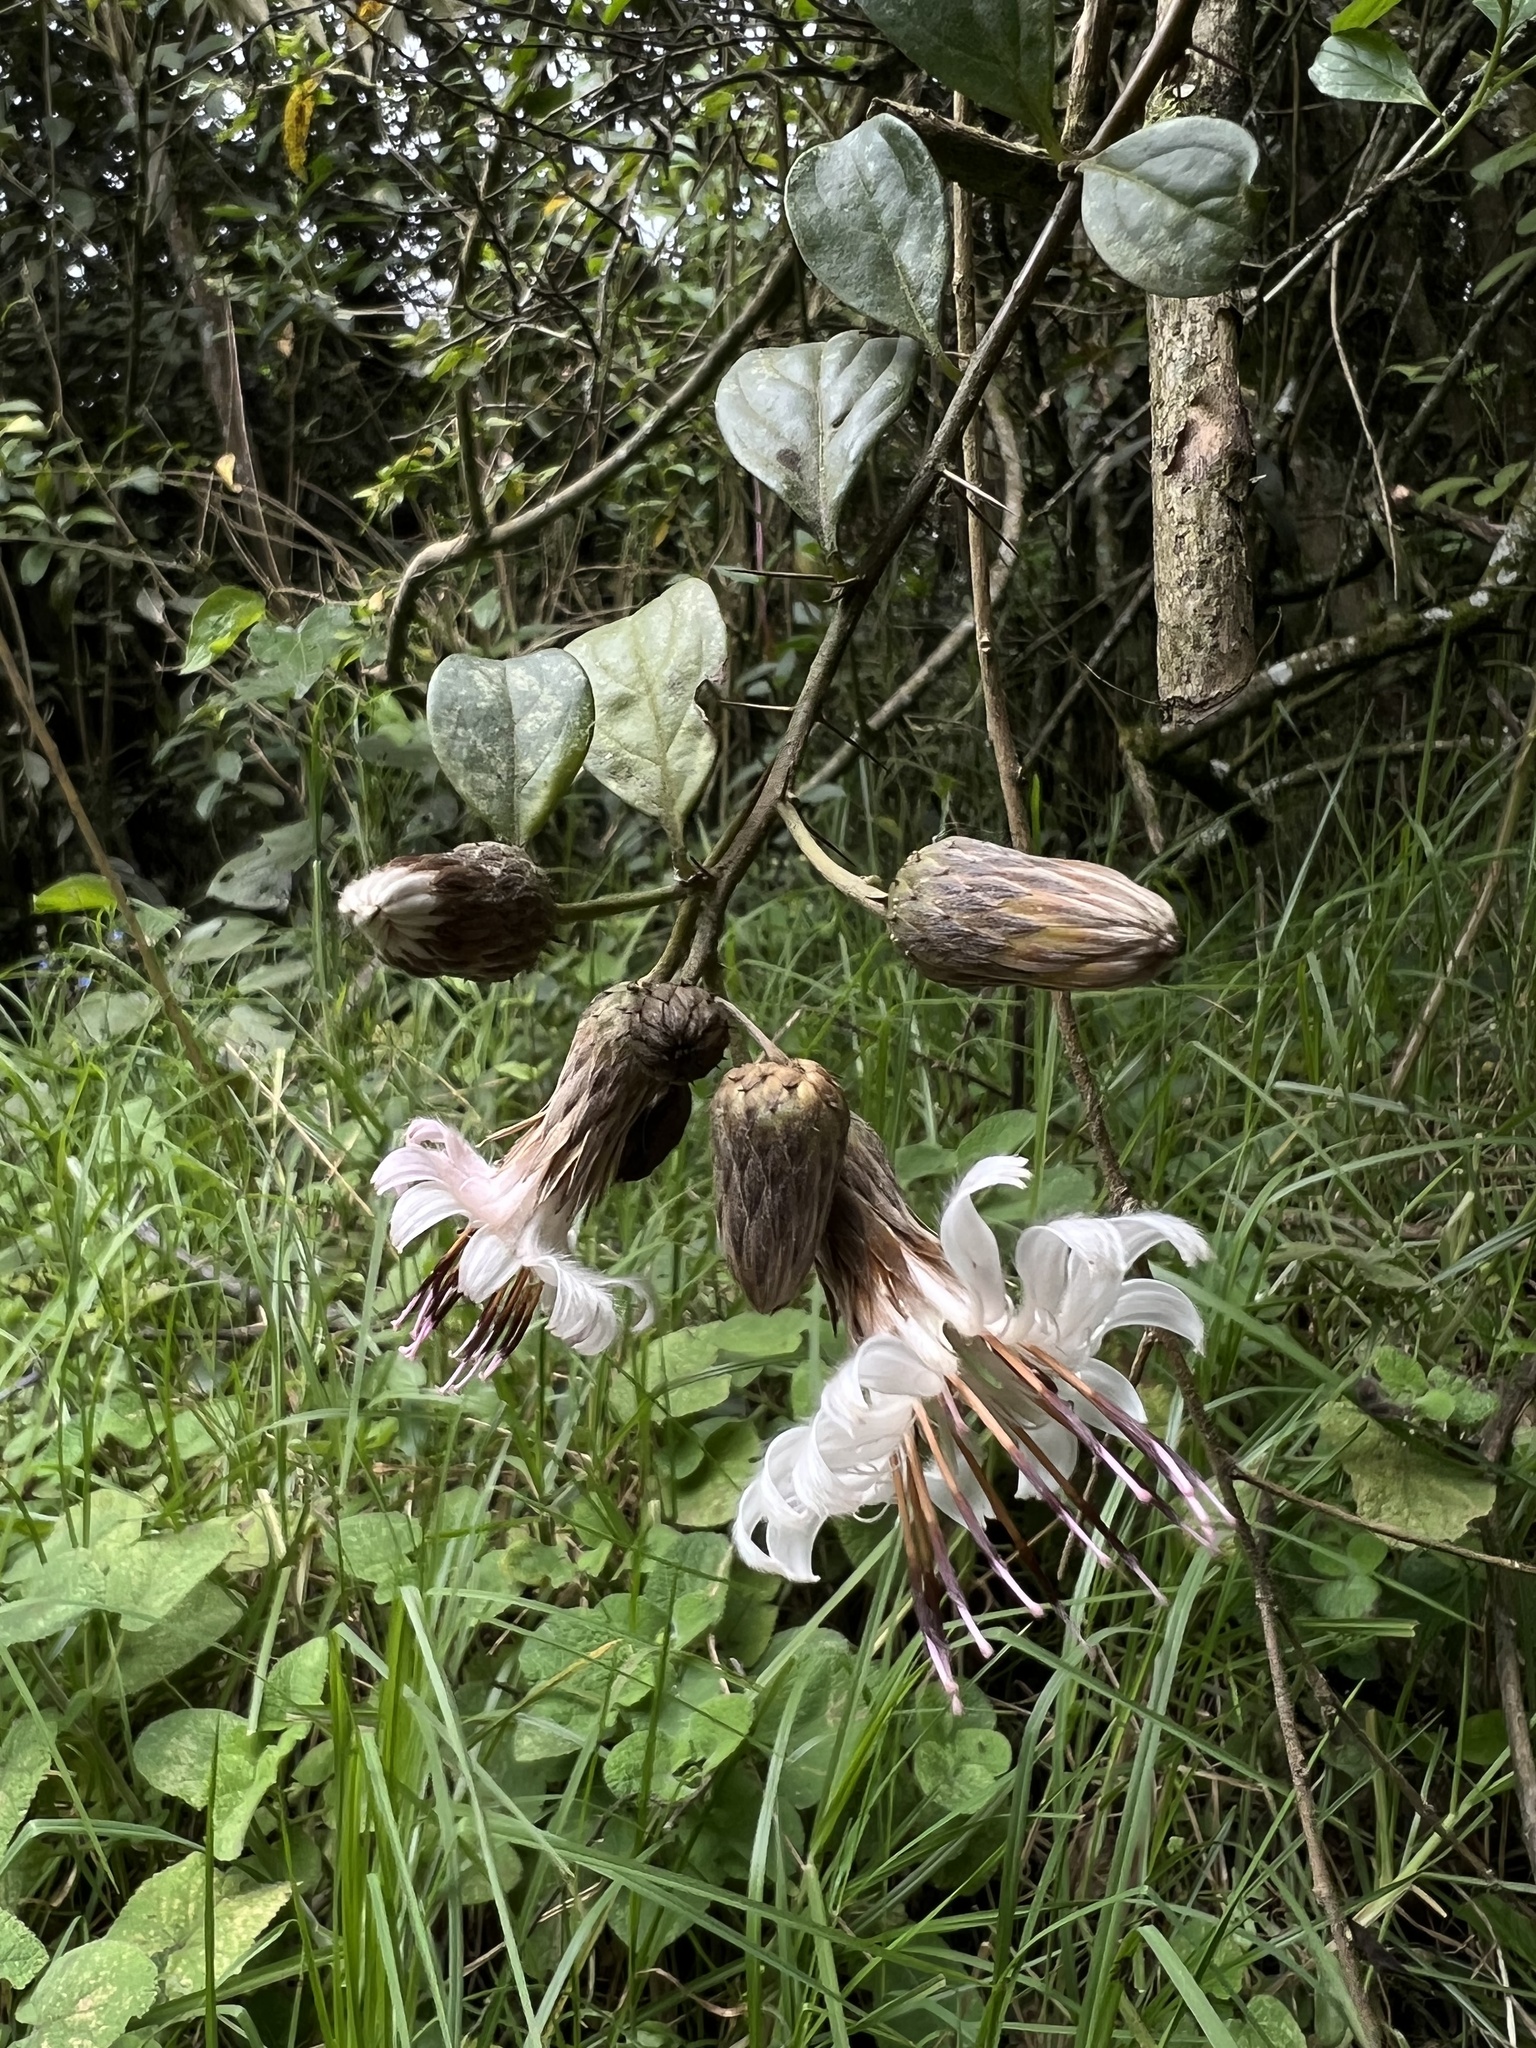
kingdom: Plantae
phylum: Tracheophyta
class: Magnoliopsida
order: Asterales
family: Asteraceae
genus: Barnadesia
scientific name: Barnadesia spinosa
